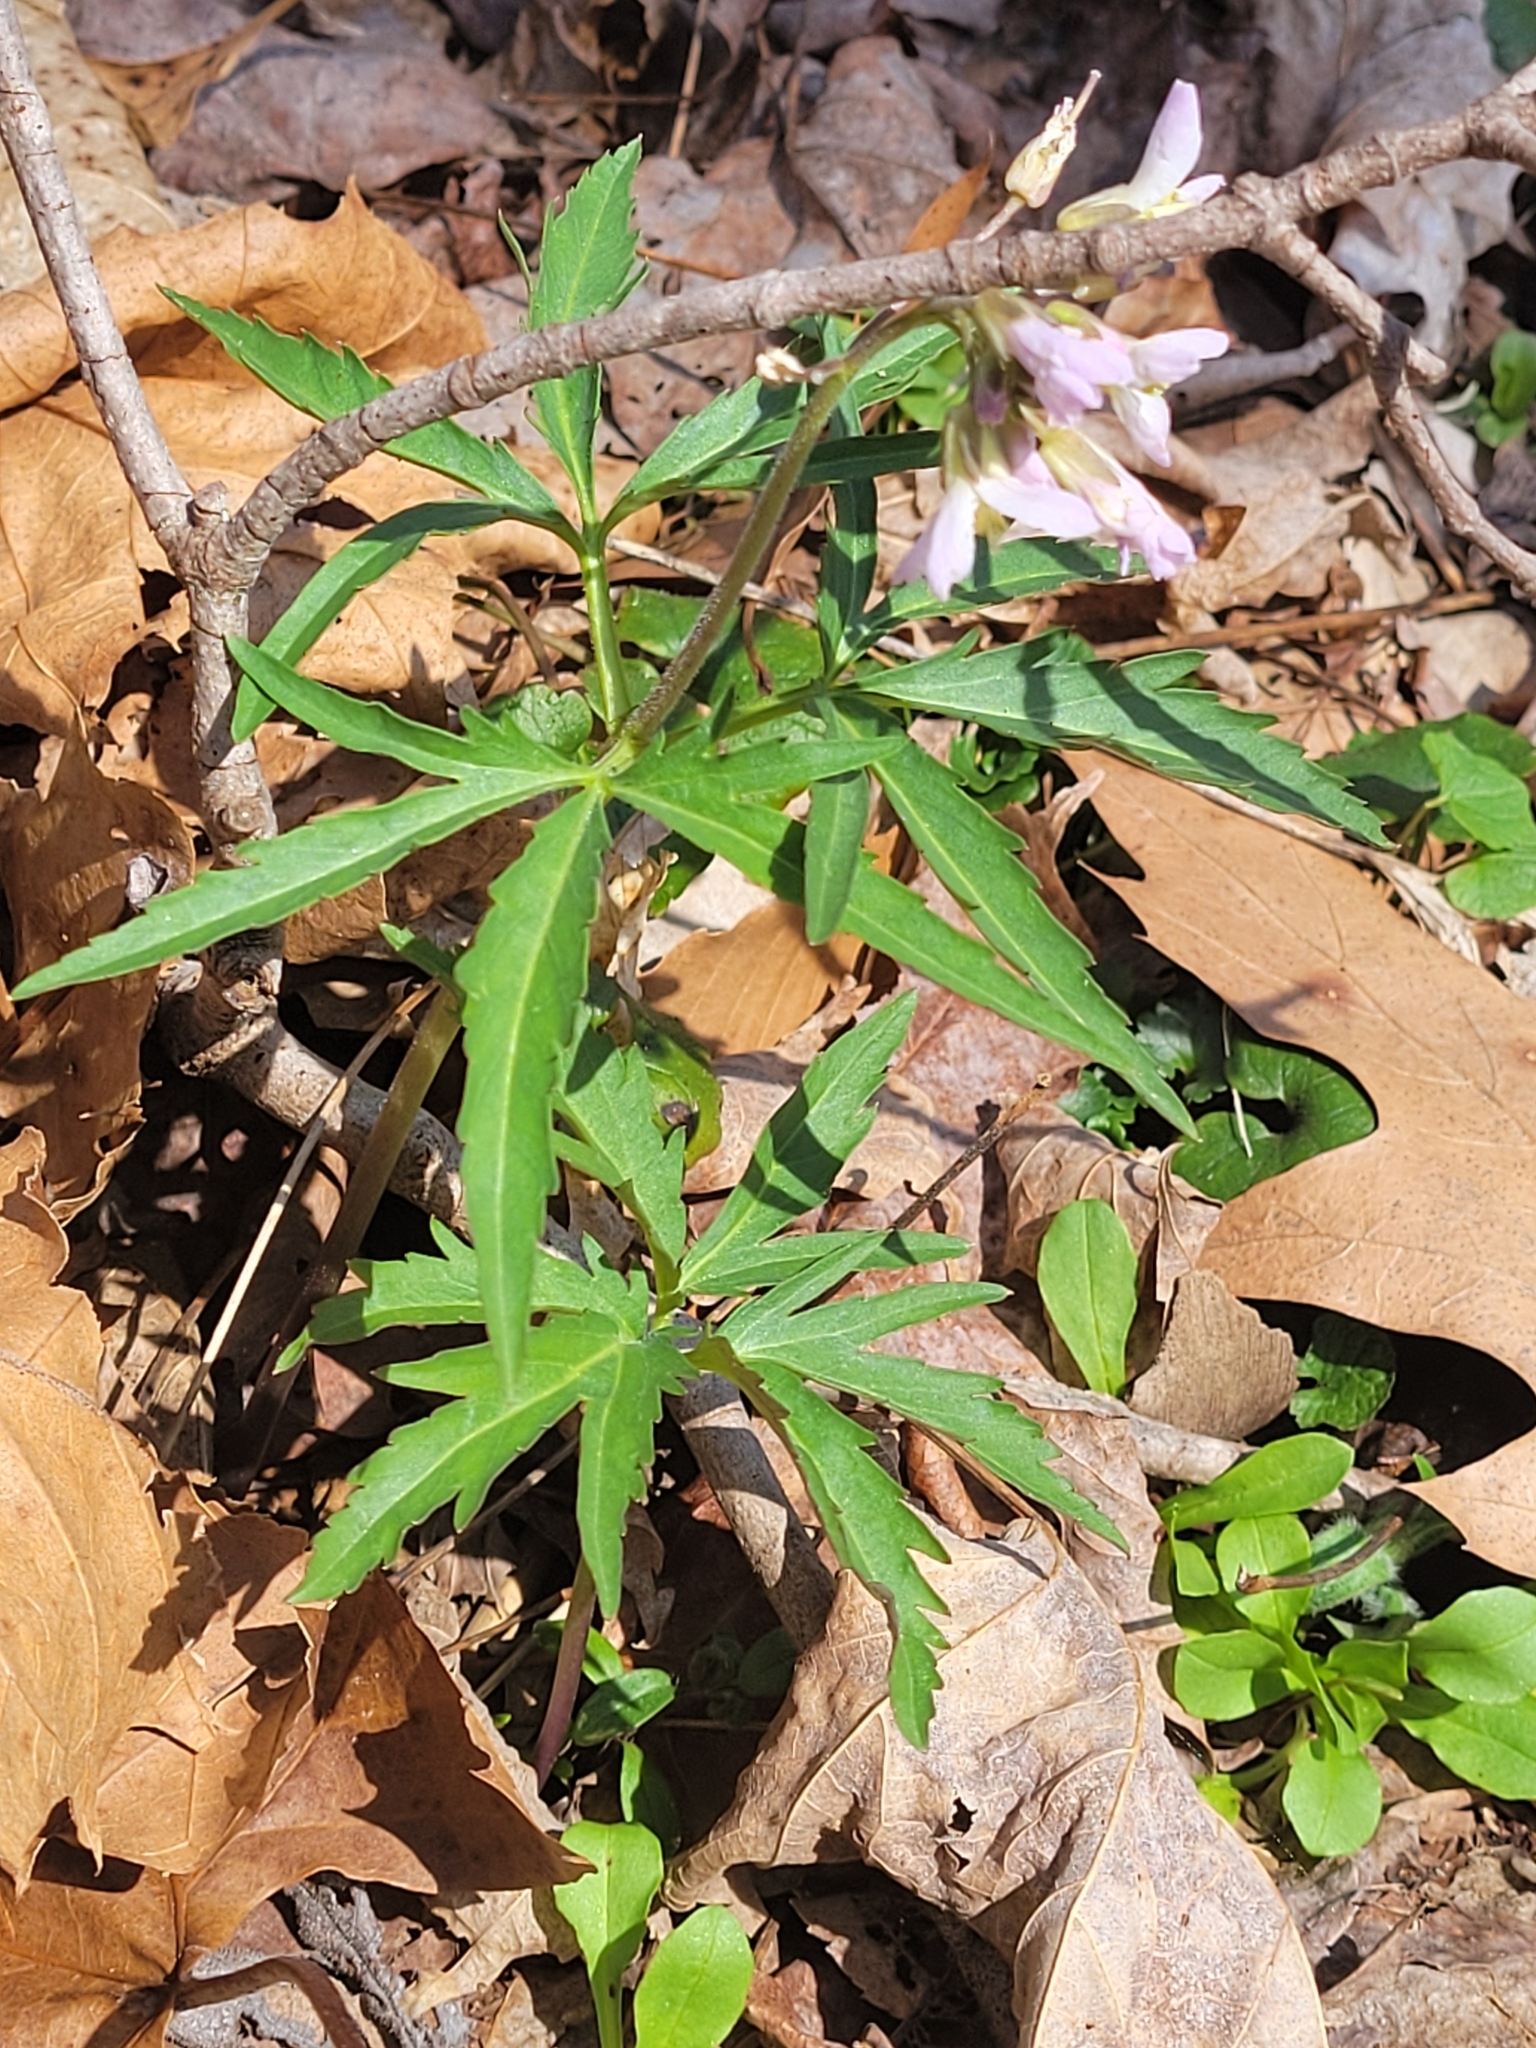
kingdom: Plantae
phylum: Tracheophyta
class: Magnoliopsida
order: Brassicales
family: Brassicaceae
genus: Cardamine
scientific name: Cardamine concatenata
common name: Cut-leaf toothcup
